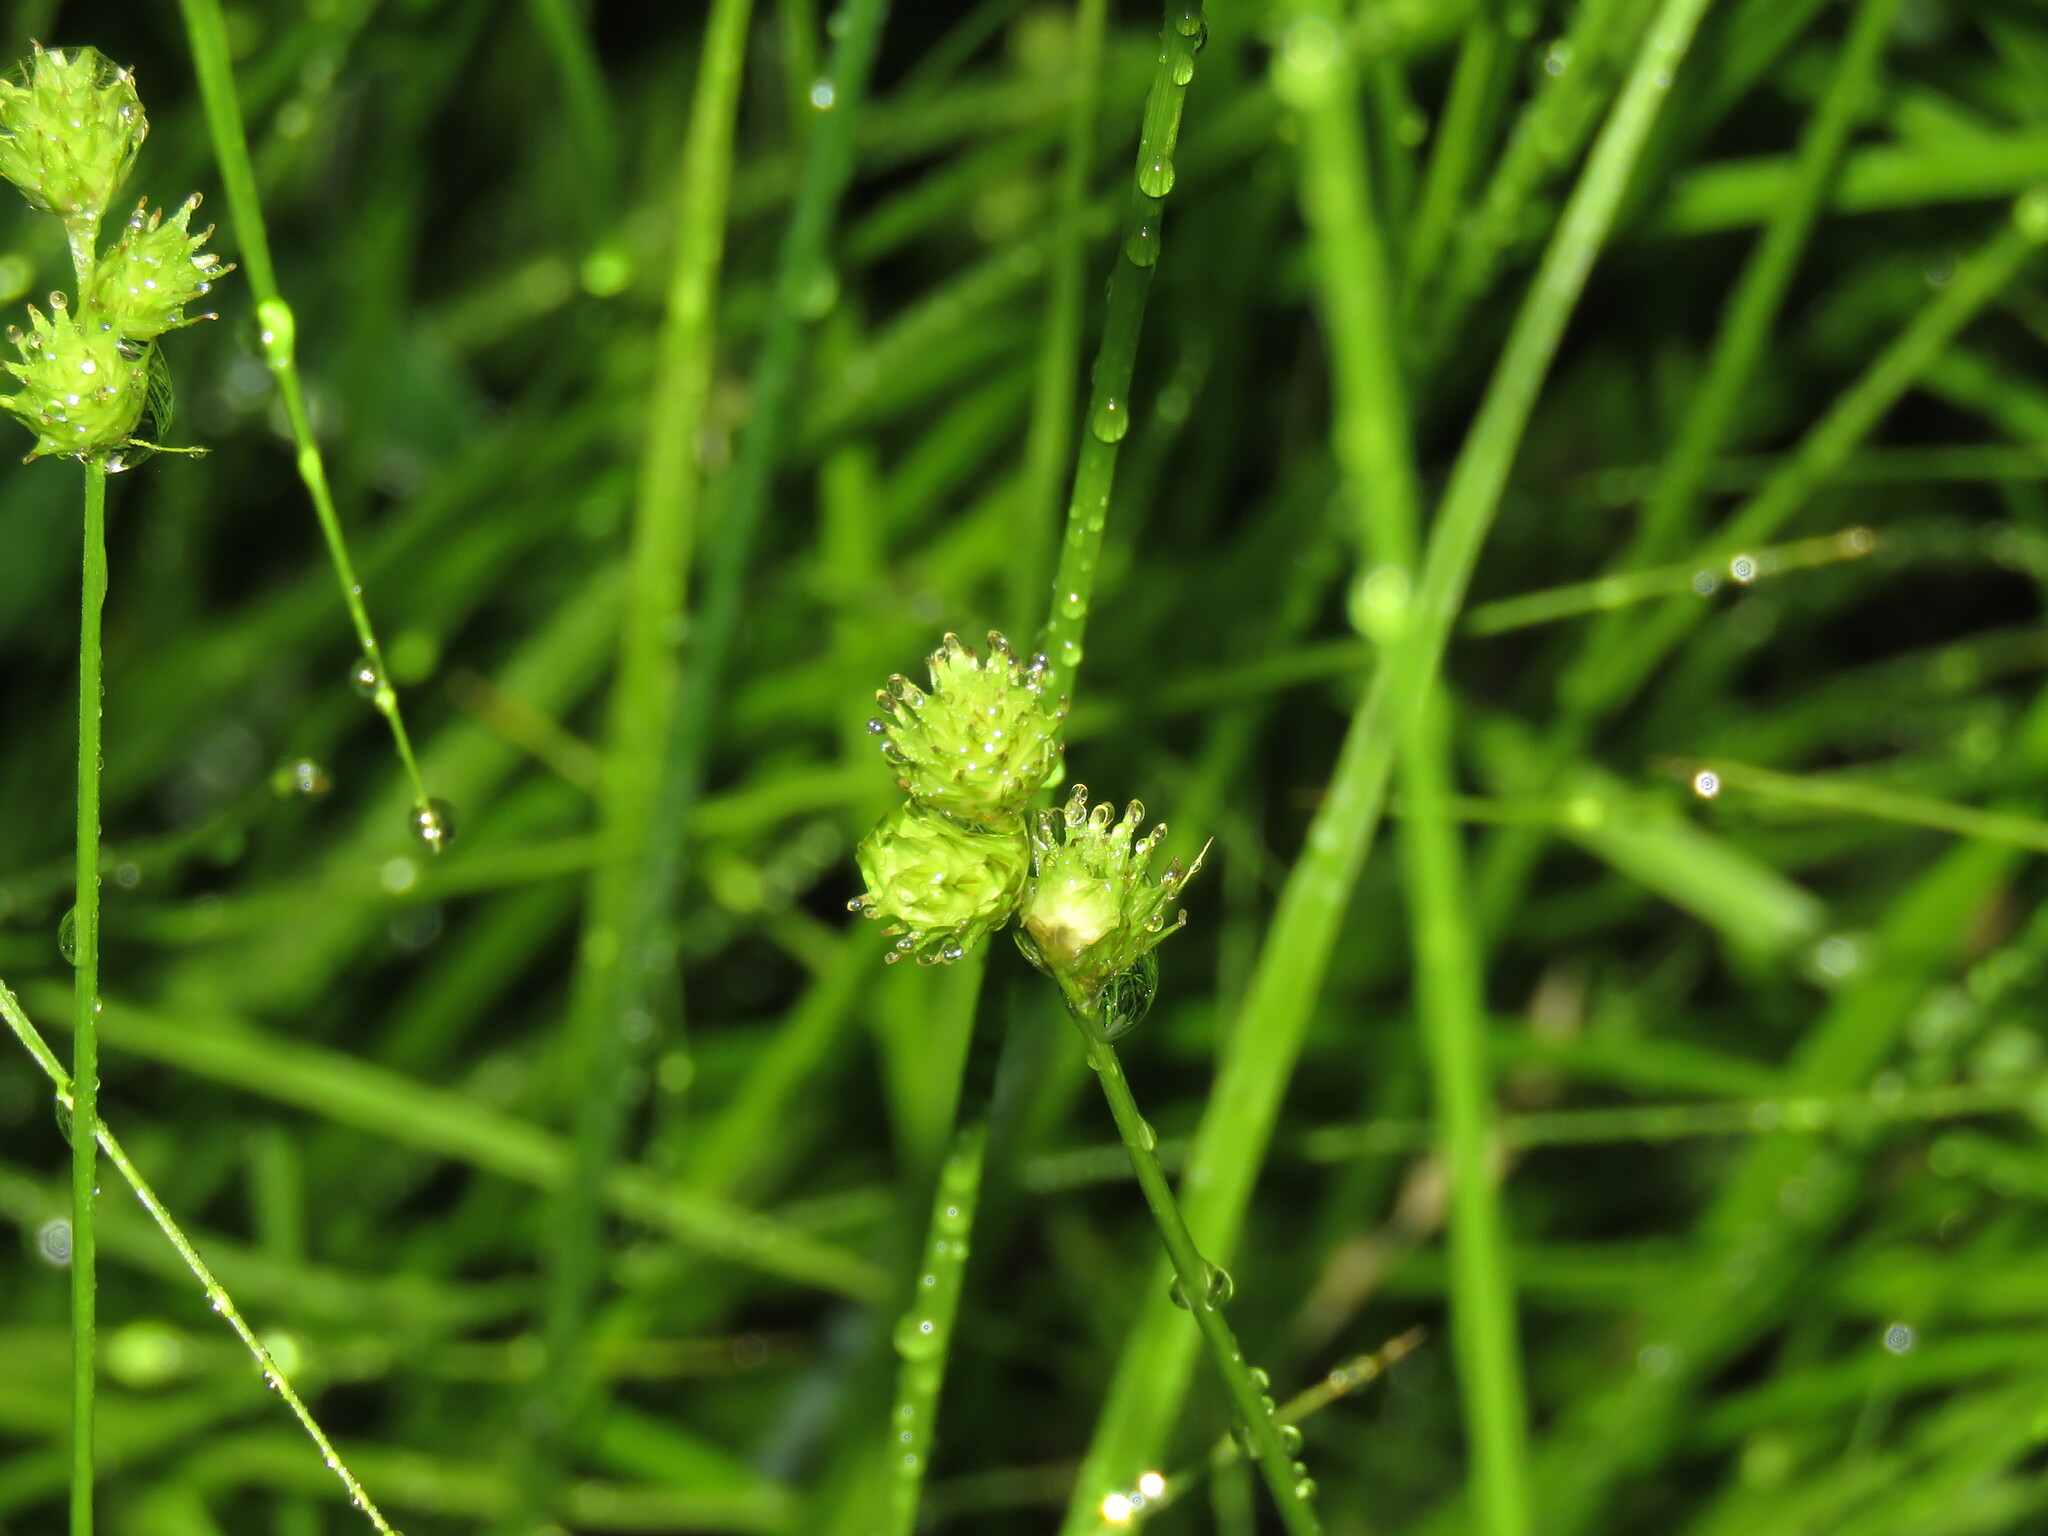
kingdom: Plantae
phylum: Tracheophyta
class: Liliopsida
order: Poales
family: Cyperaceae
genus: Carex
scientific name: Carex molesta
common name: Troublesome sedge
